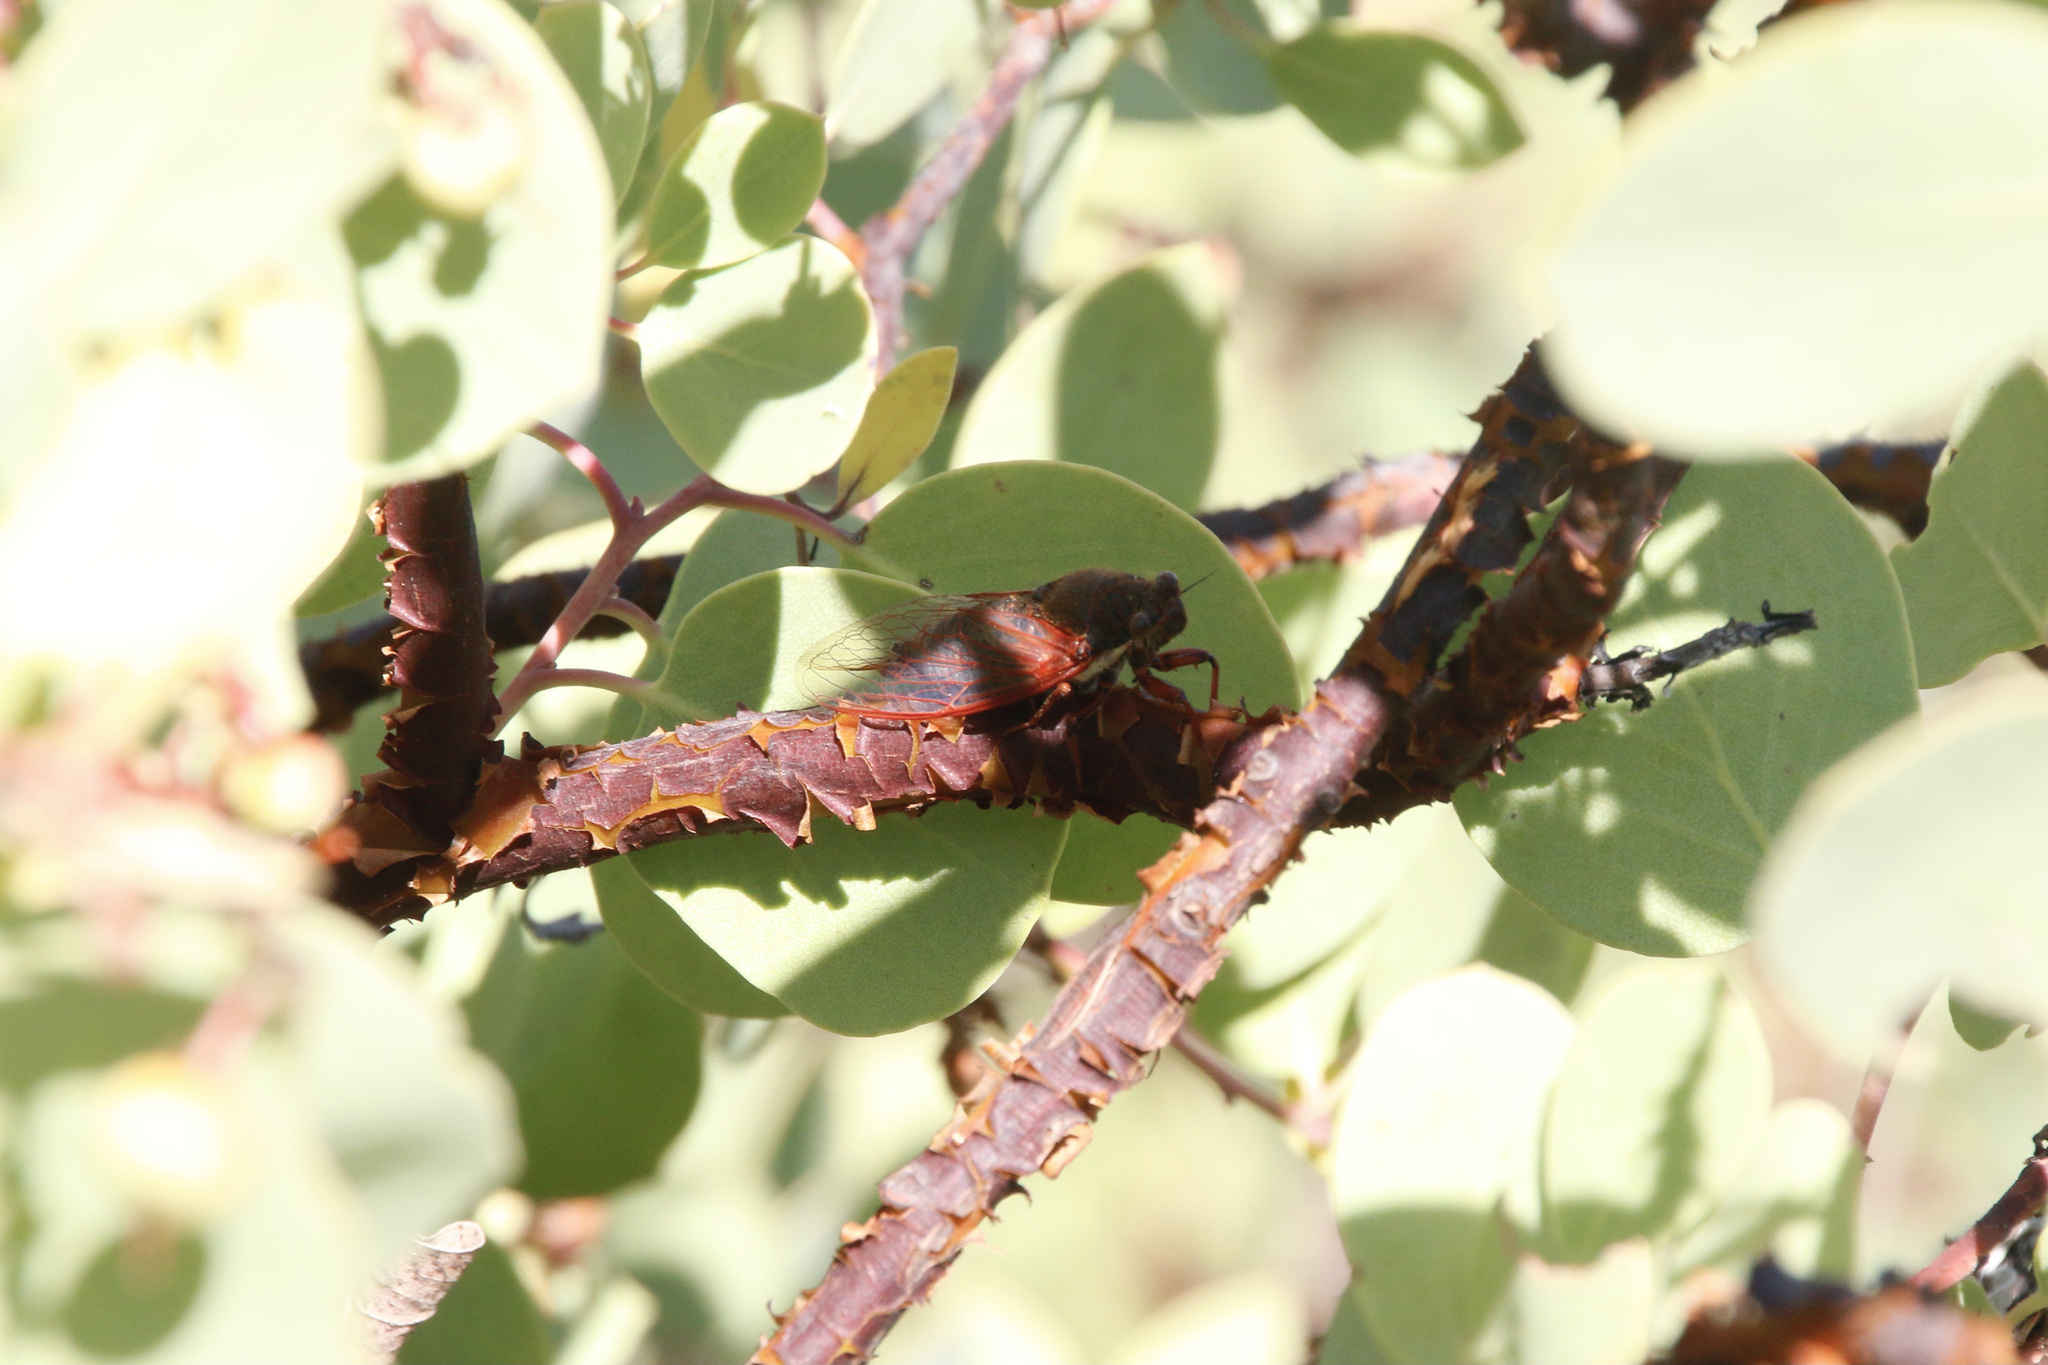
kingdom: Animalia
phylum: Arthropoda
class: Insecta
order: Hemiptera
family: Cicadidae
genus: Tibicinoides
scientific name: Tibicinoides
